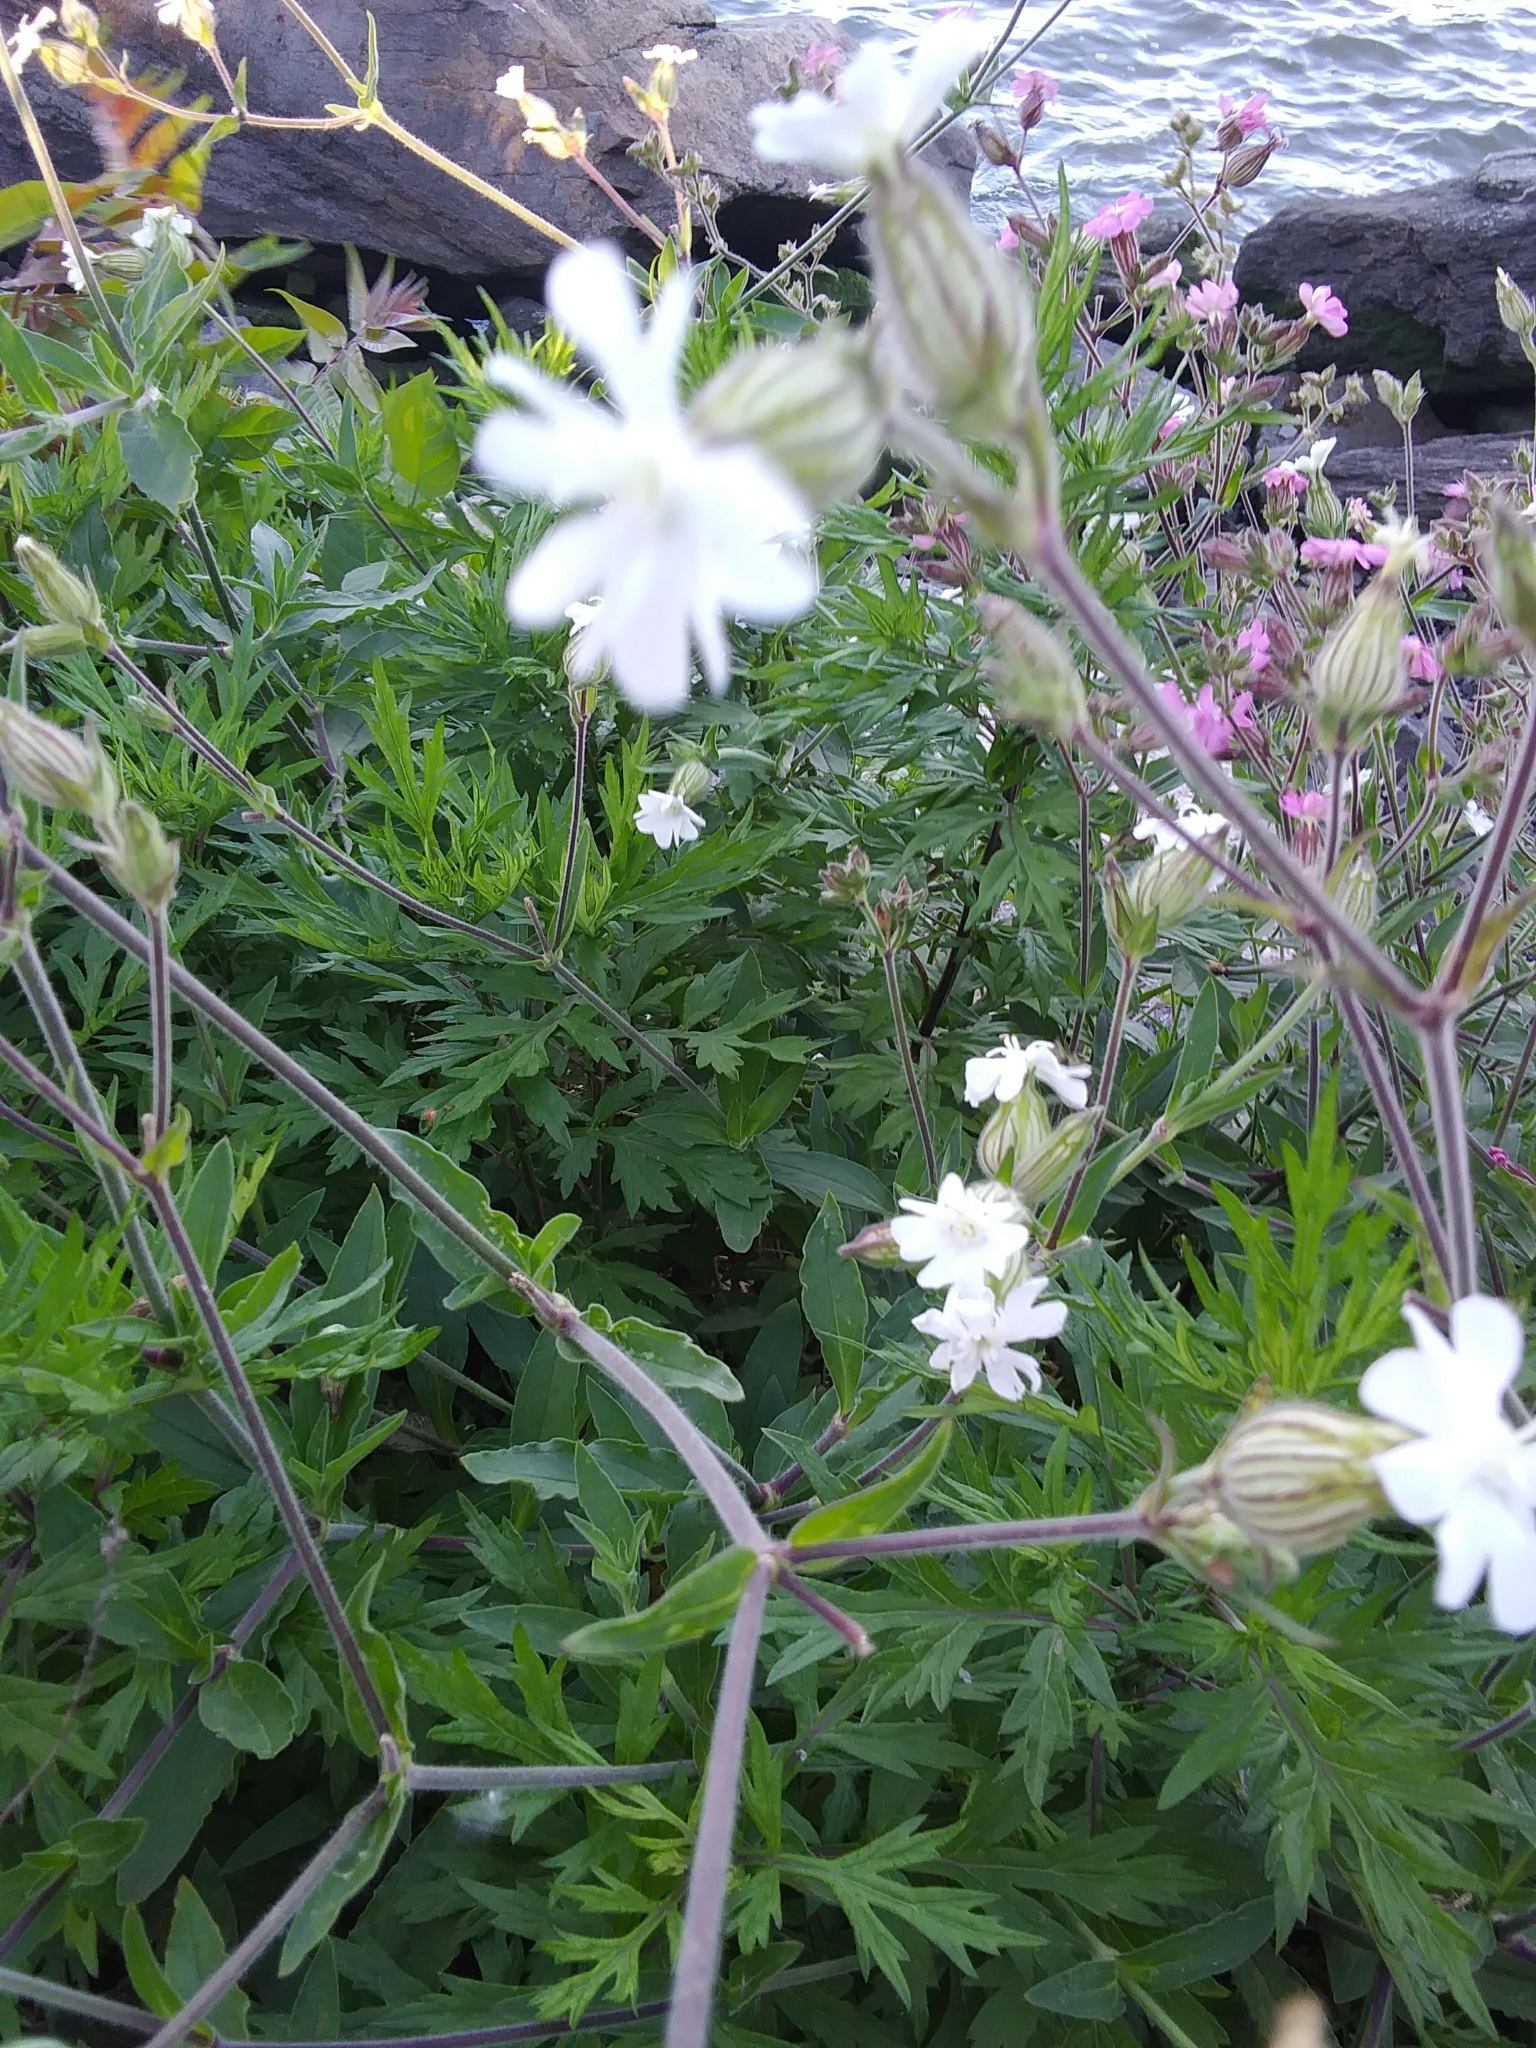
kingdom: Plantae
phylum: Tracheophyta
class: Magnoliopsida
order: Caryophyllales
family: Caryophyllaceae
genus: Silene
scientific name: Silene latifolia
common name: White campion
